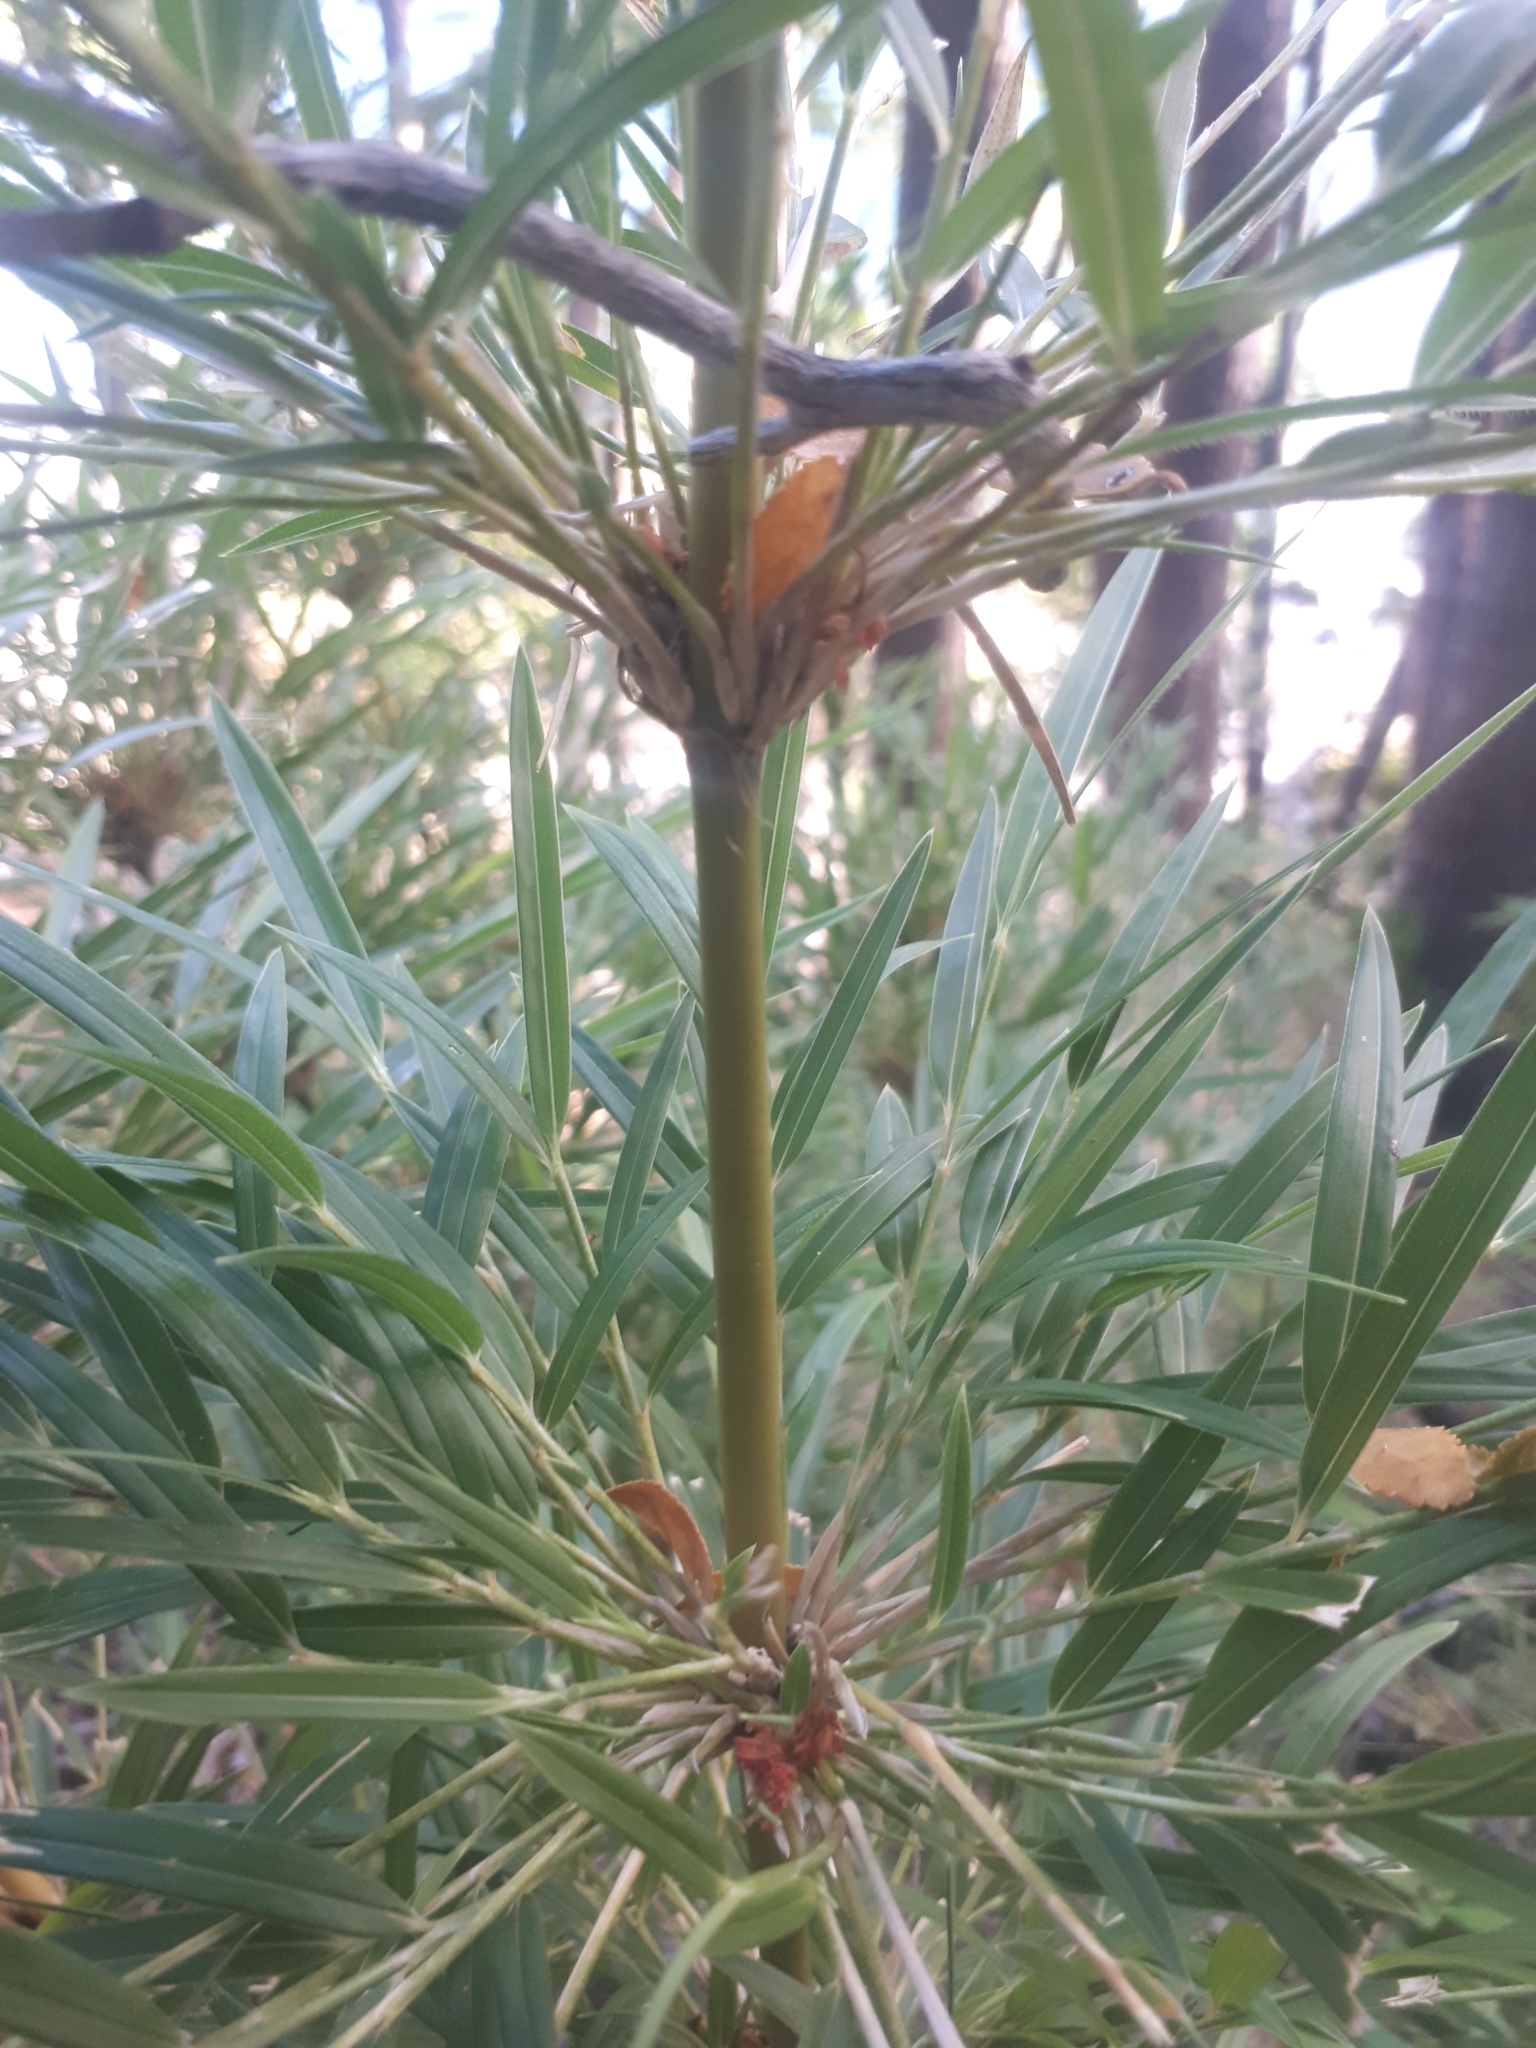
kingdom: Plantae
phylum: Tracheophyta
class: Liliopsida
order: Poales
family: Poaceae
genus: Chusquea
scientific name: Chusquea culeou
